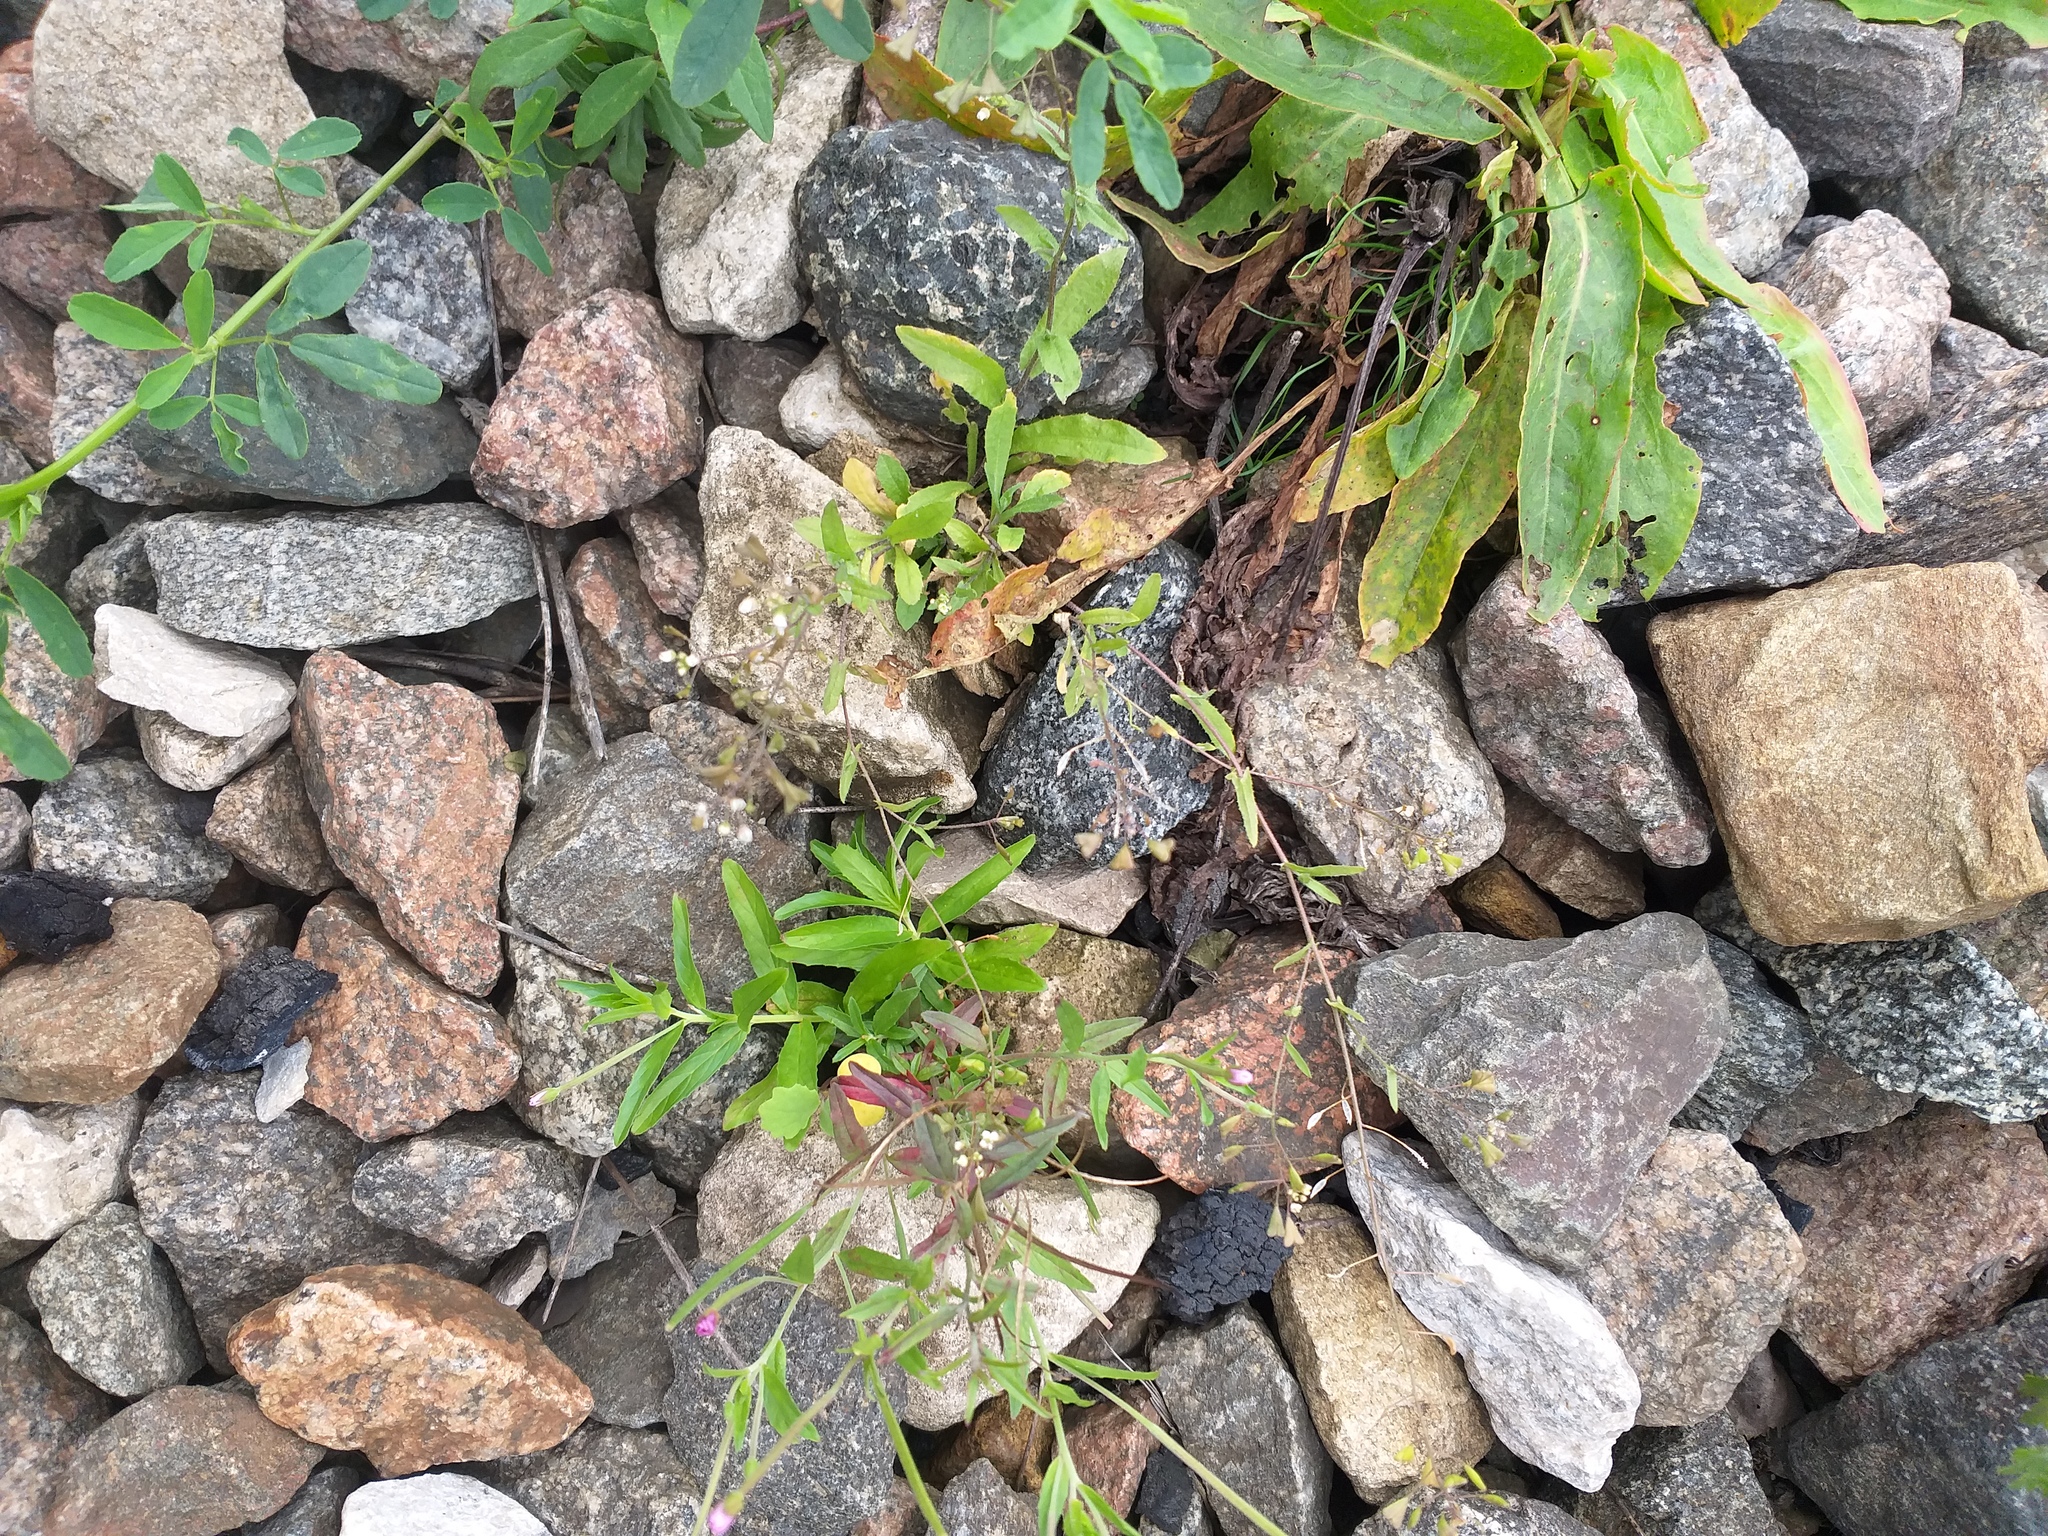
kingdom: Plantae
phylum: Tracheophyta
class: Magnoliopsida
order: Brassicales
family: Brassicaceae
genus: Capsella
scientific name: Capsella bursa-pastoris
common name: Shepherd's purse
